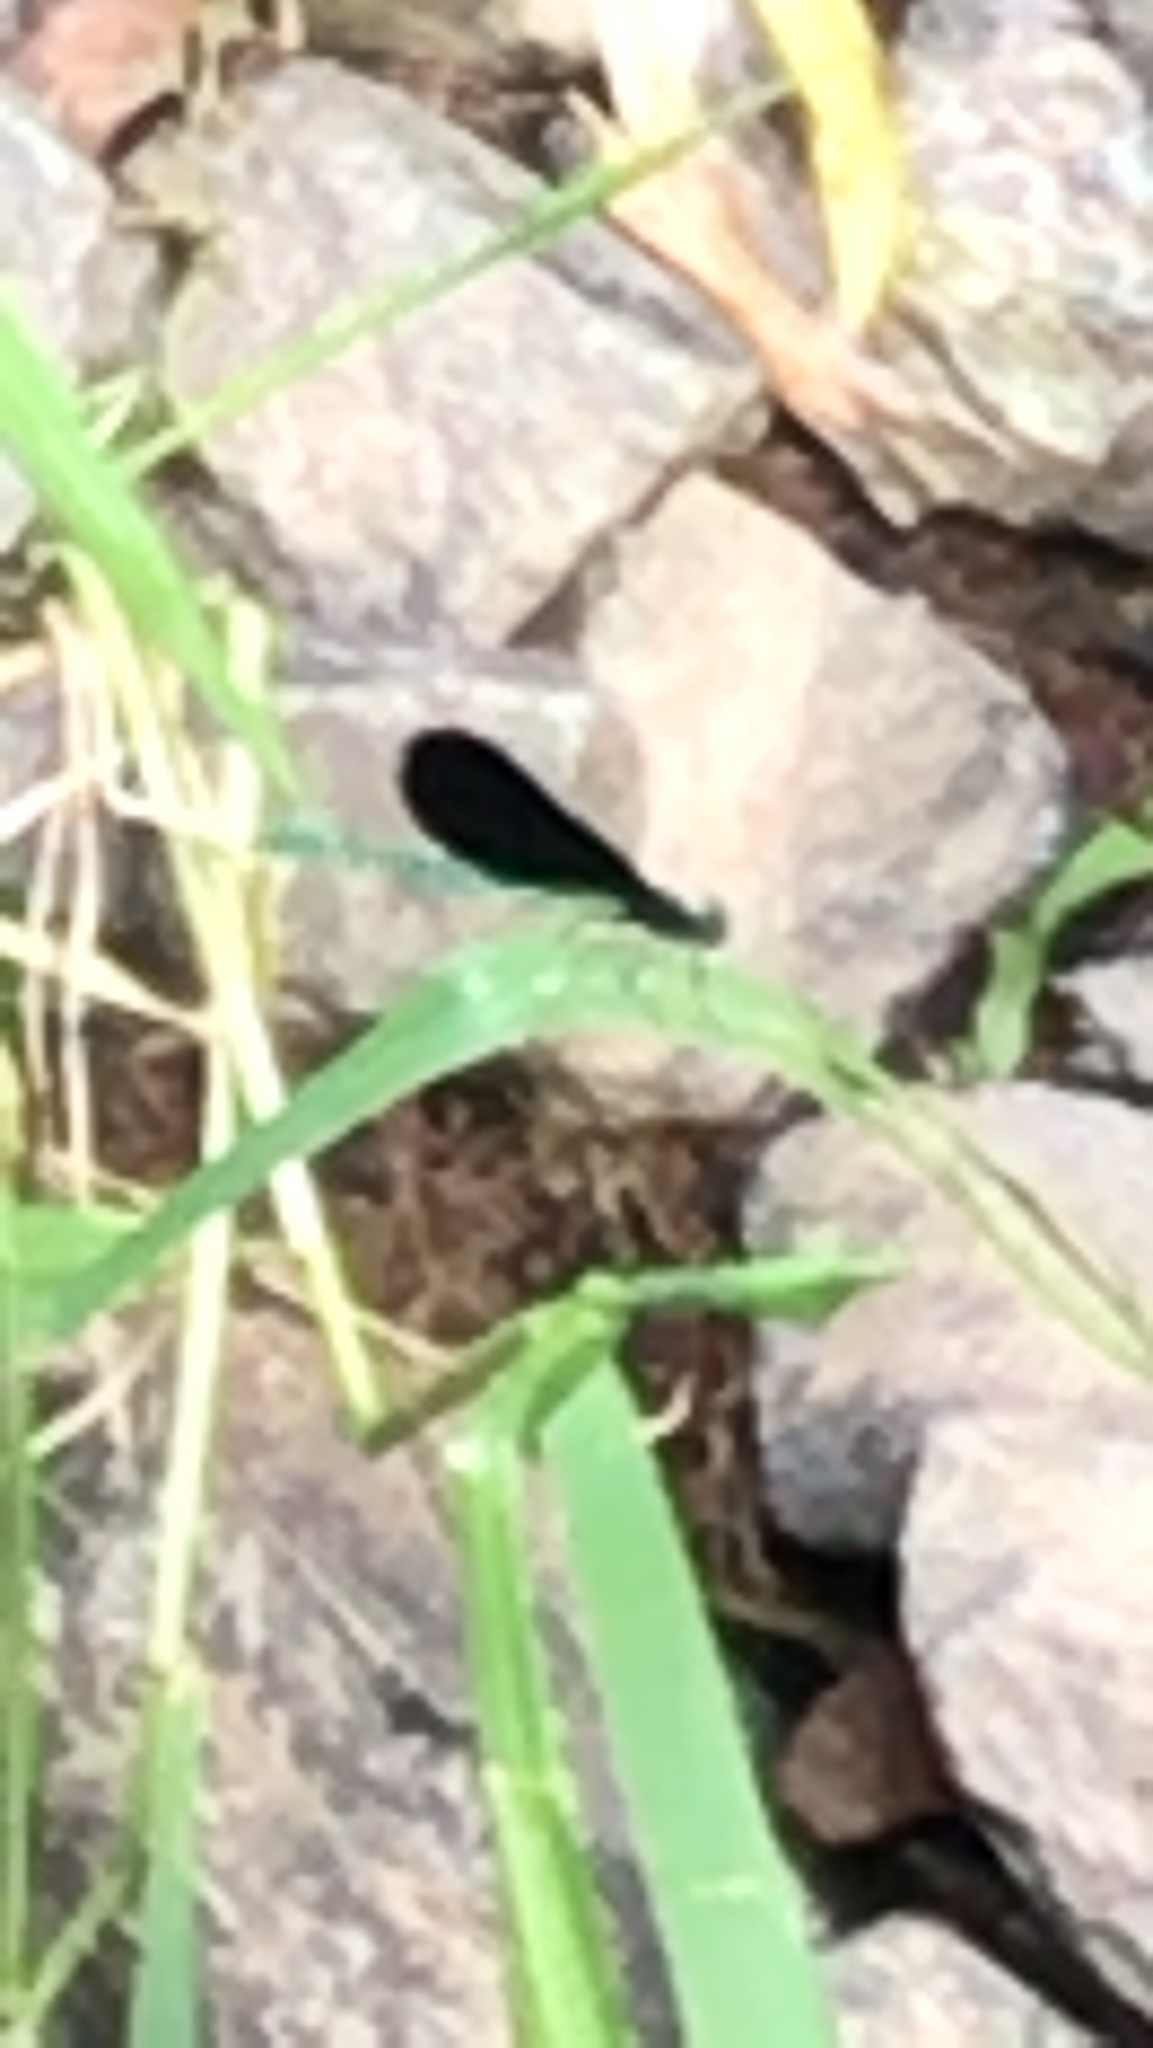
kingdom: Animalia
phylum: Arthropoda
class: Insecta
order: Odonata
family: Calopterygidae
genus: Calopteryx
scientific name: Calopteryx maculata
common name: Ebony jewelwing
